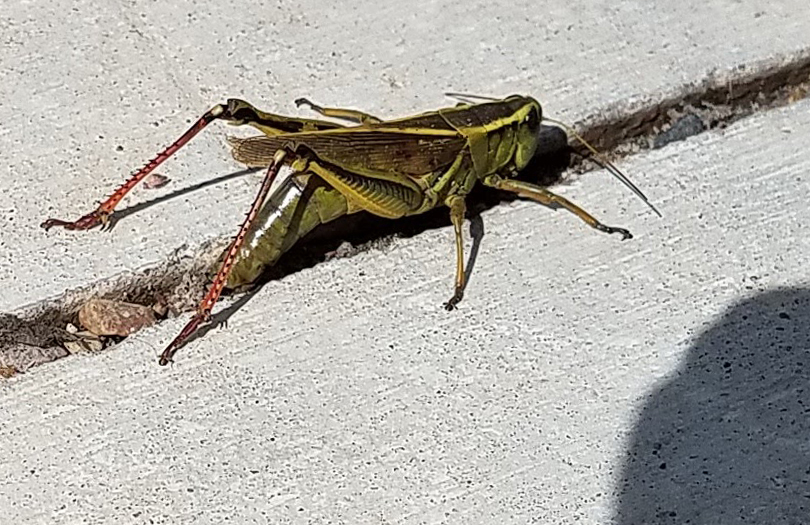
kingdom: Animalia
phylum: Arthropoda
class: Insecta
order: Orthoptera
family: Acrididae
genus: Melanoplus
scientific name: Melanoplus bivittatus
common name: Two-striped grasshopper
